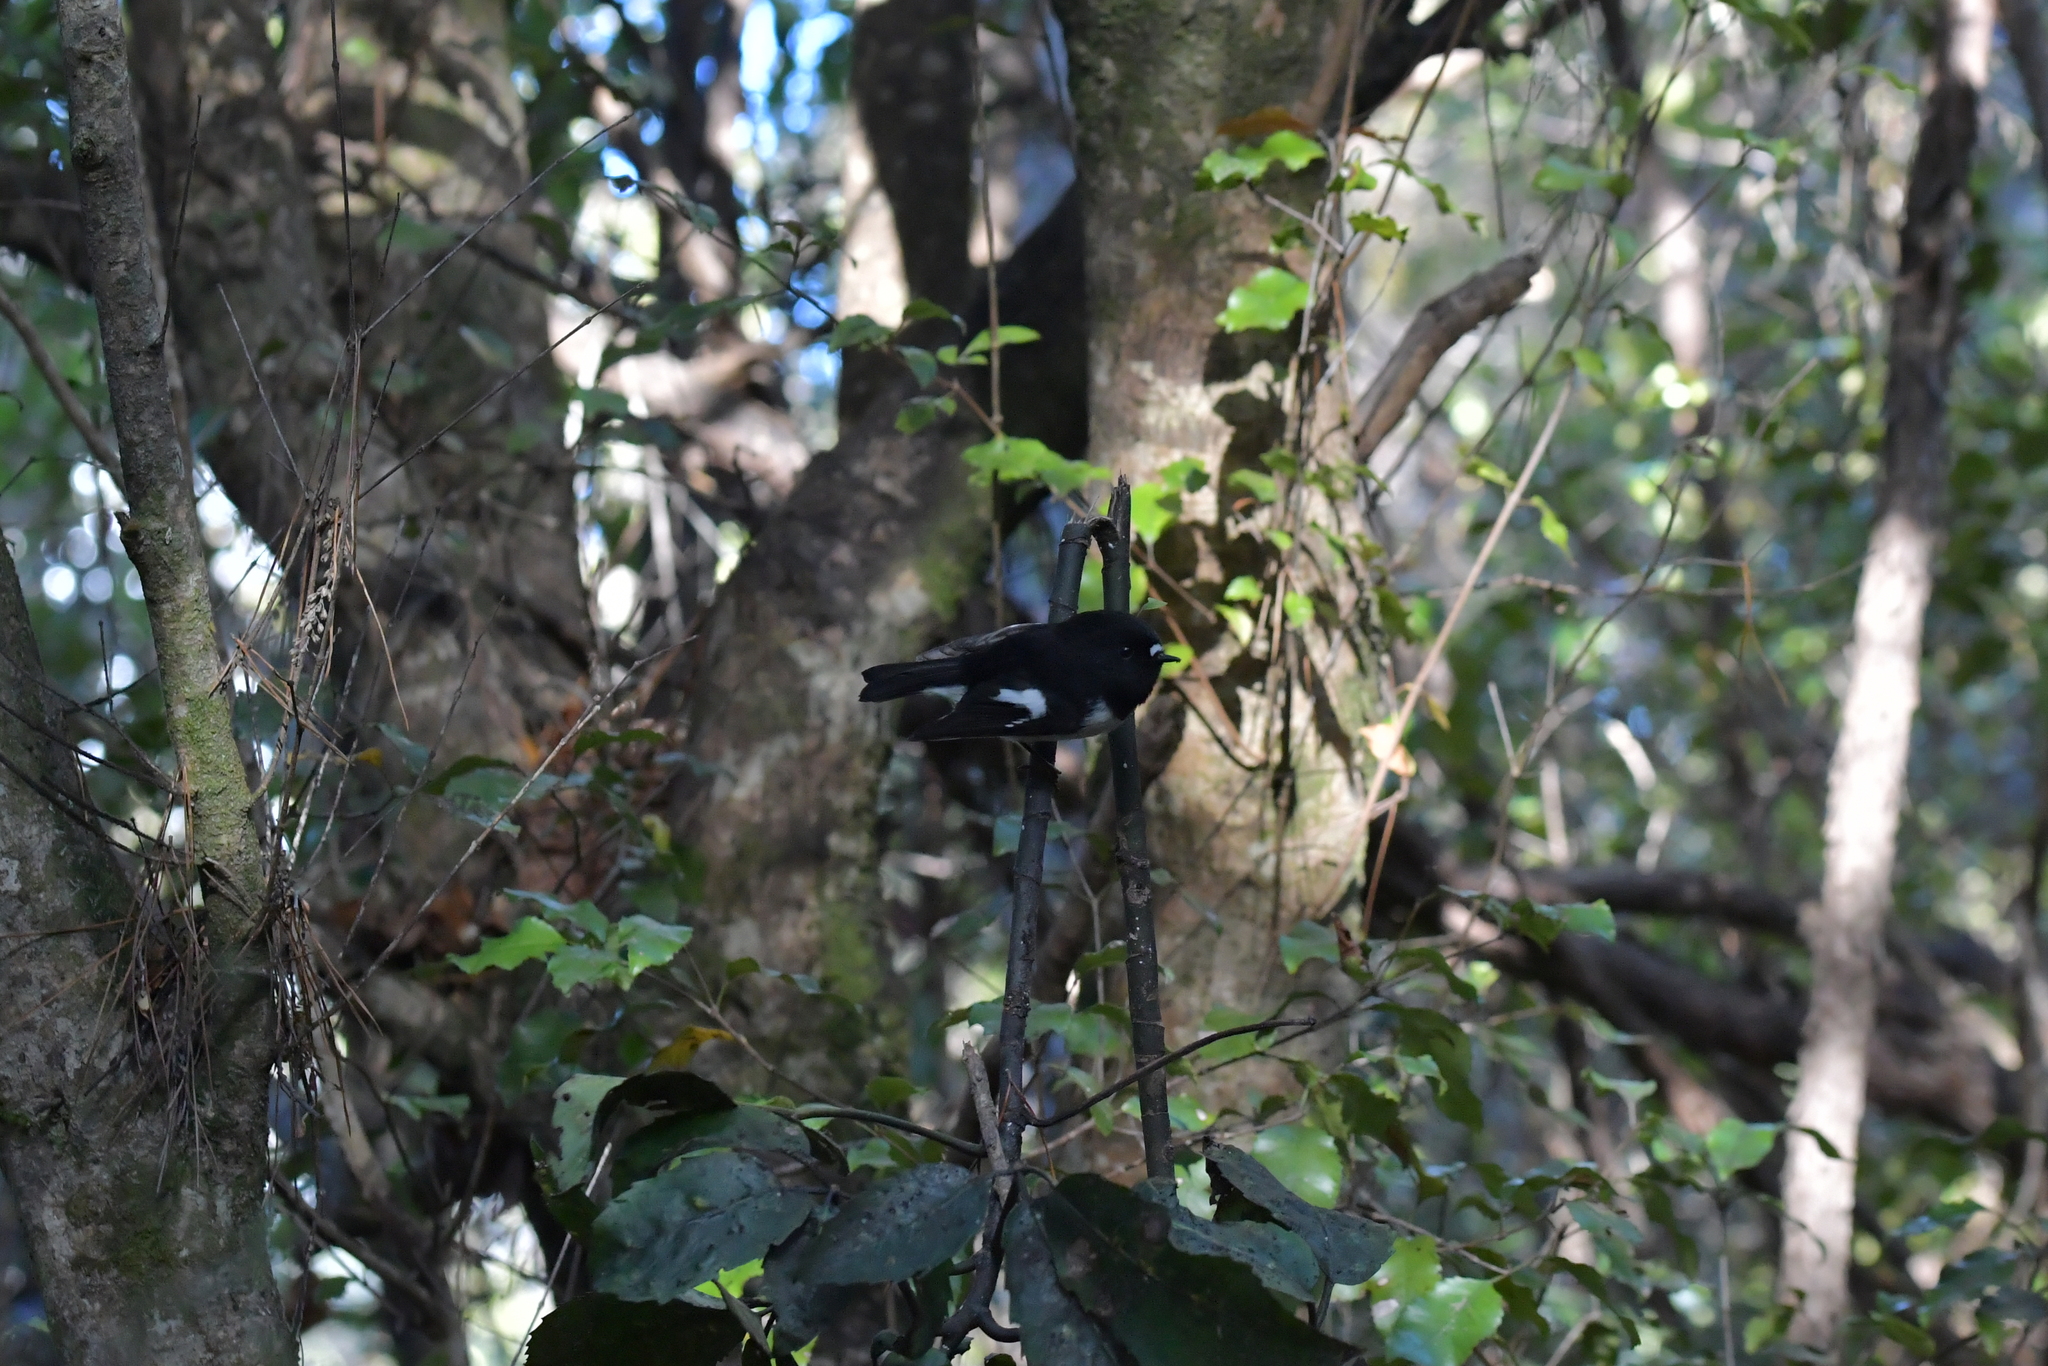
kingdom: Animalia
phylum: Chordata
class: Aves
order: Passeriformes
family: Petroicidae
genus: Petroica
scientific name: Petroica macrocephala
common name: Tomtit
